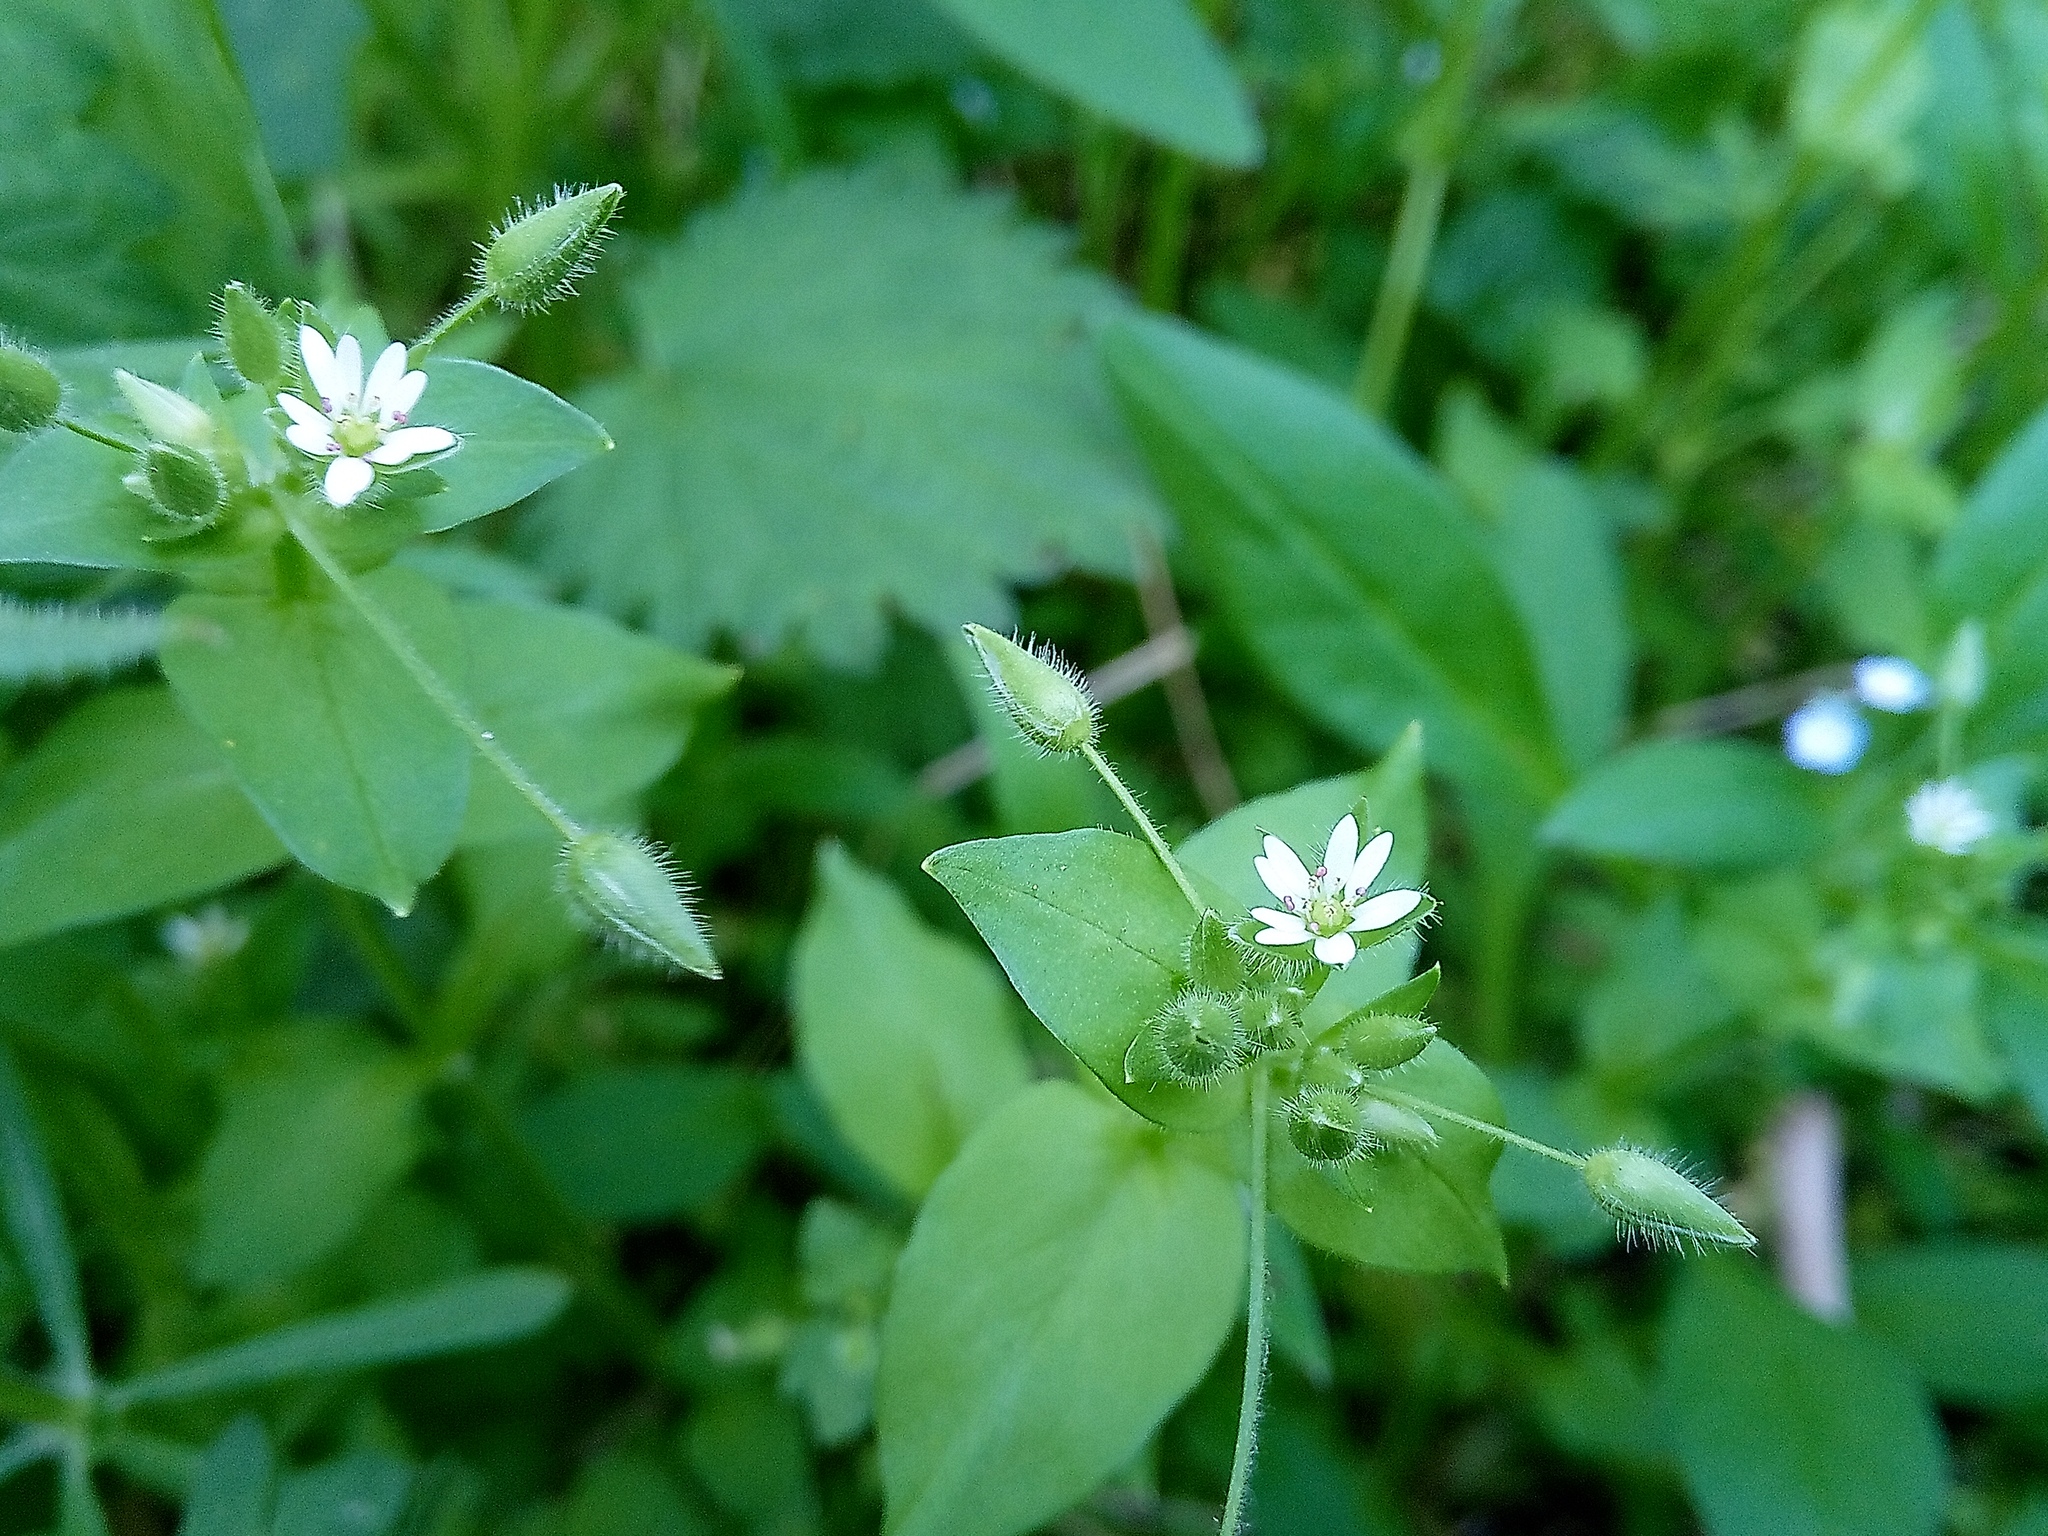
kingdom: Plantae
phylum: Tracheophyta
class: Magnoliopsida
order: Caryophyllales
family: Caryophyllaceae
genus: Stellaria
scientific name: Stellaria aquatica
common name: Water chickweed
